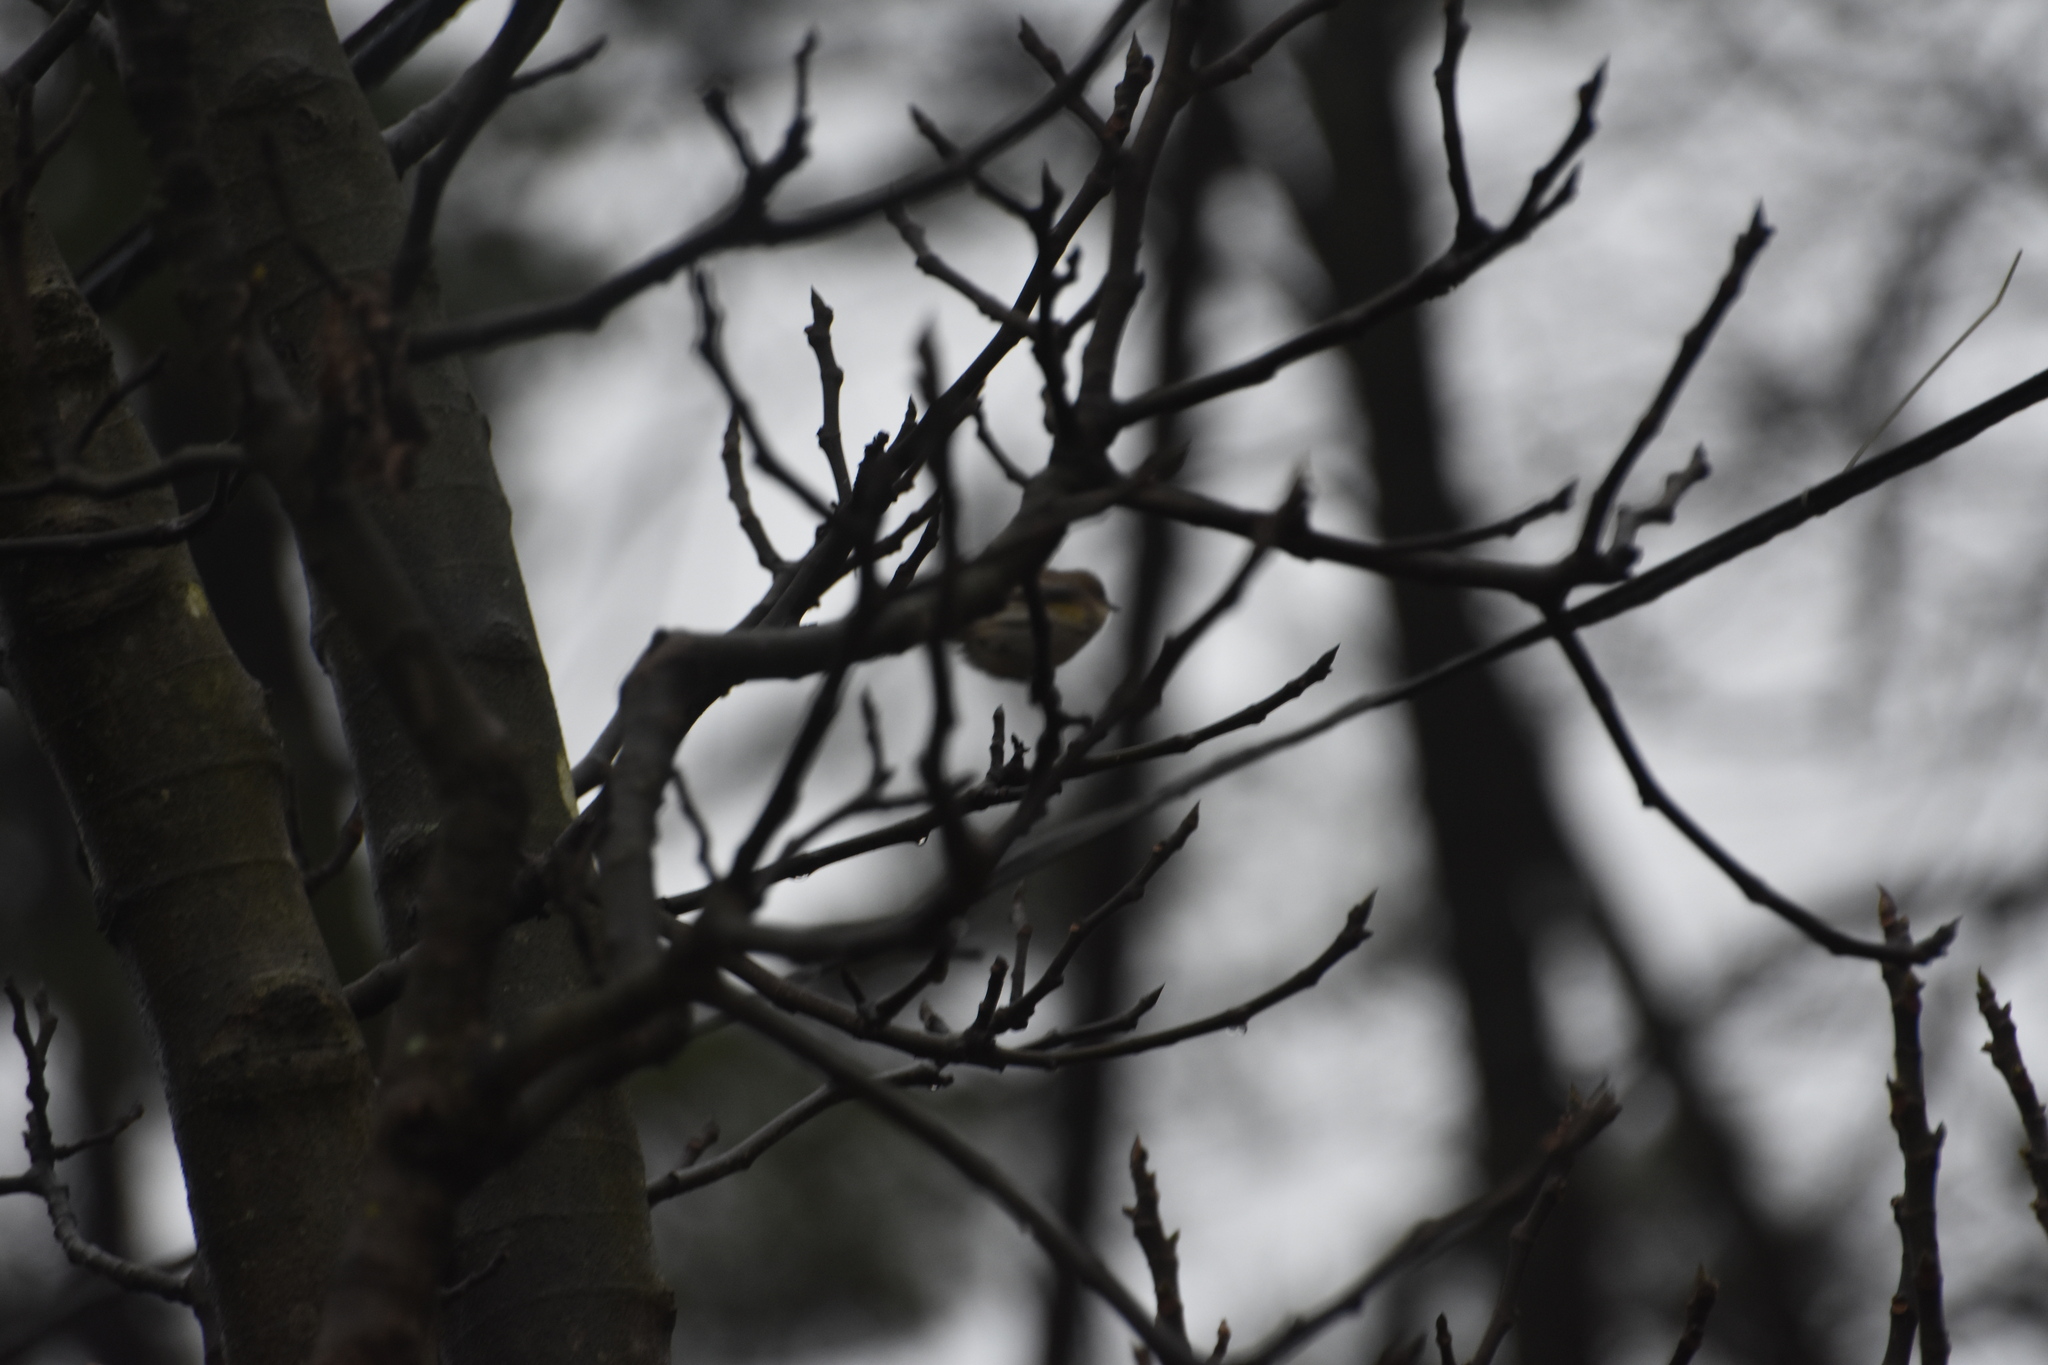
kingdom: Animalia
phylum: Chordata
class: Aves
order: Passeriformes
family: Parulidae
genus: Setophaga
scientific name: Setophaga coronata
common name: Myrtle warbler
